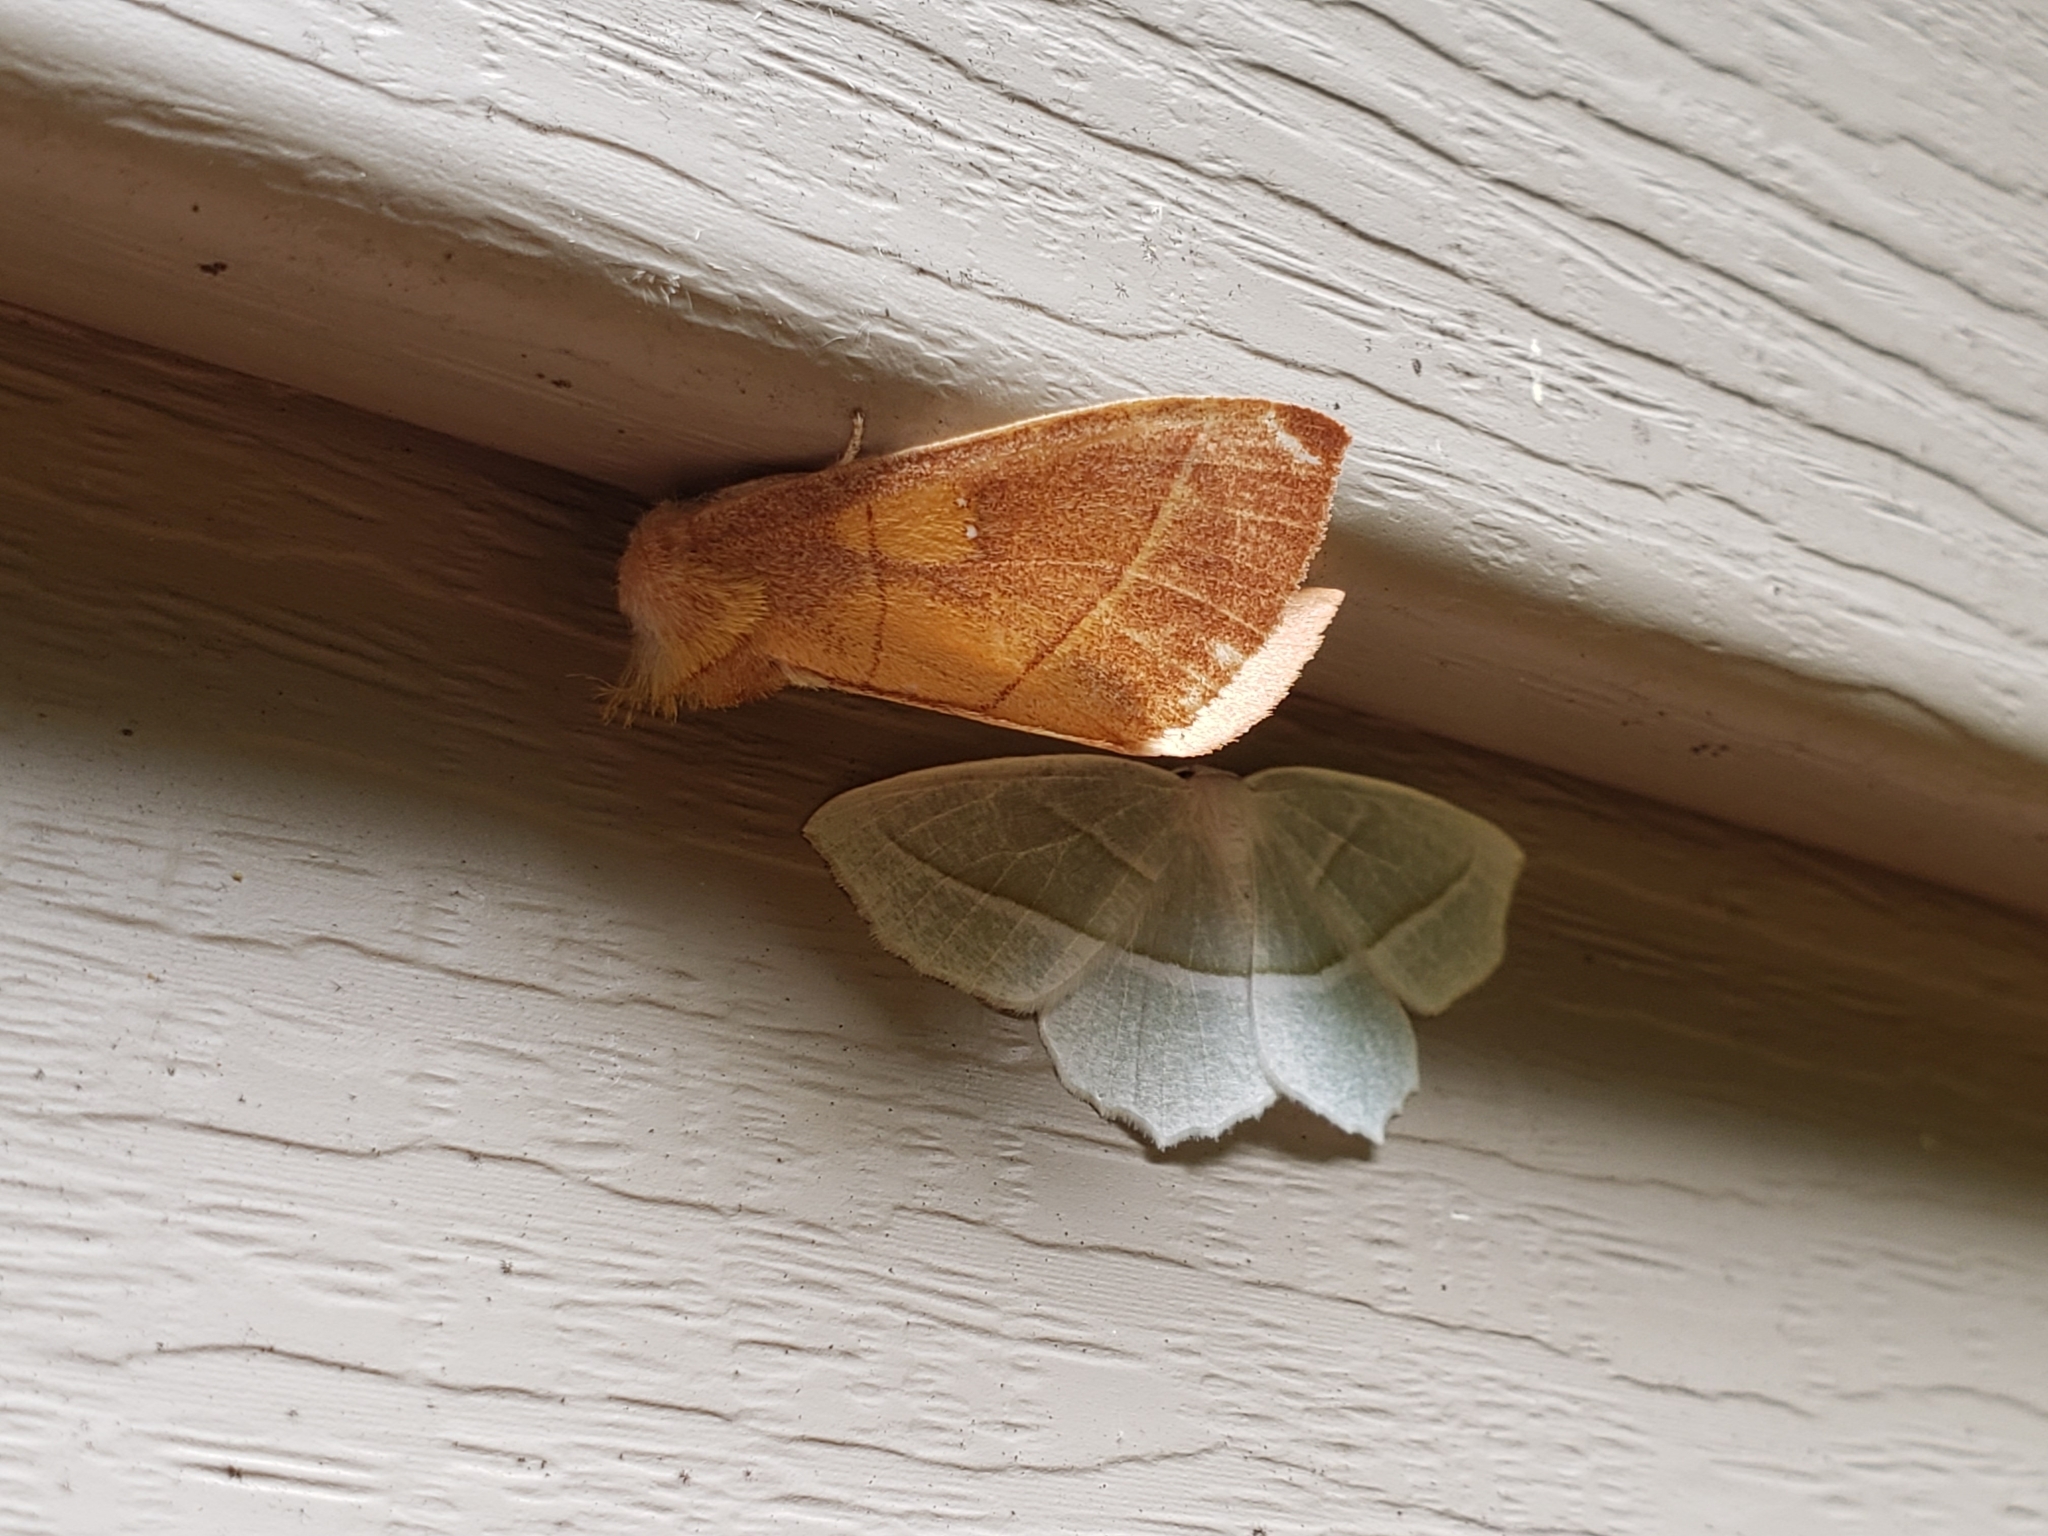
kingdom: Animalia
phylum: Arthropoda
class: Insecta
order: Lepidoptera
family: Geometridae
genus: Campaea
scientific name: Campaea perlata
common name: Fringed looper
